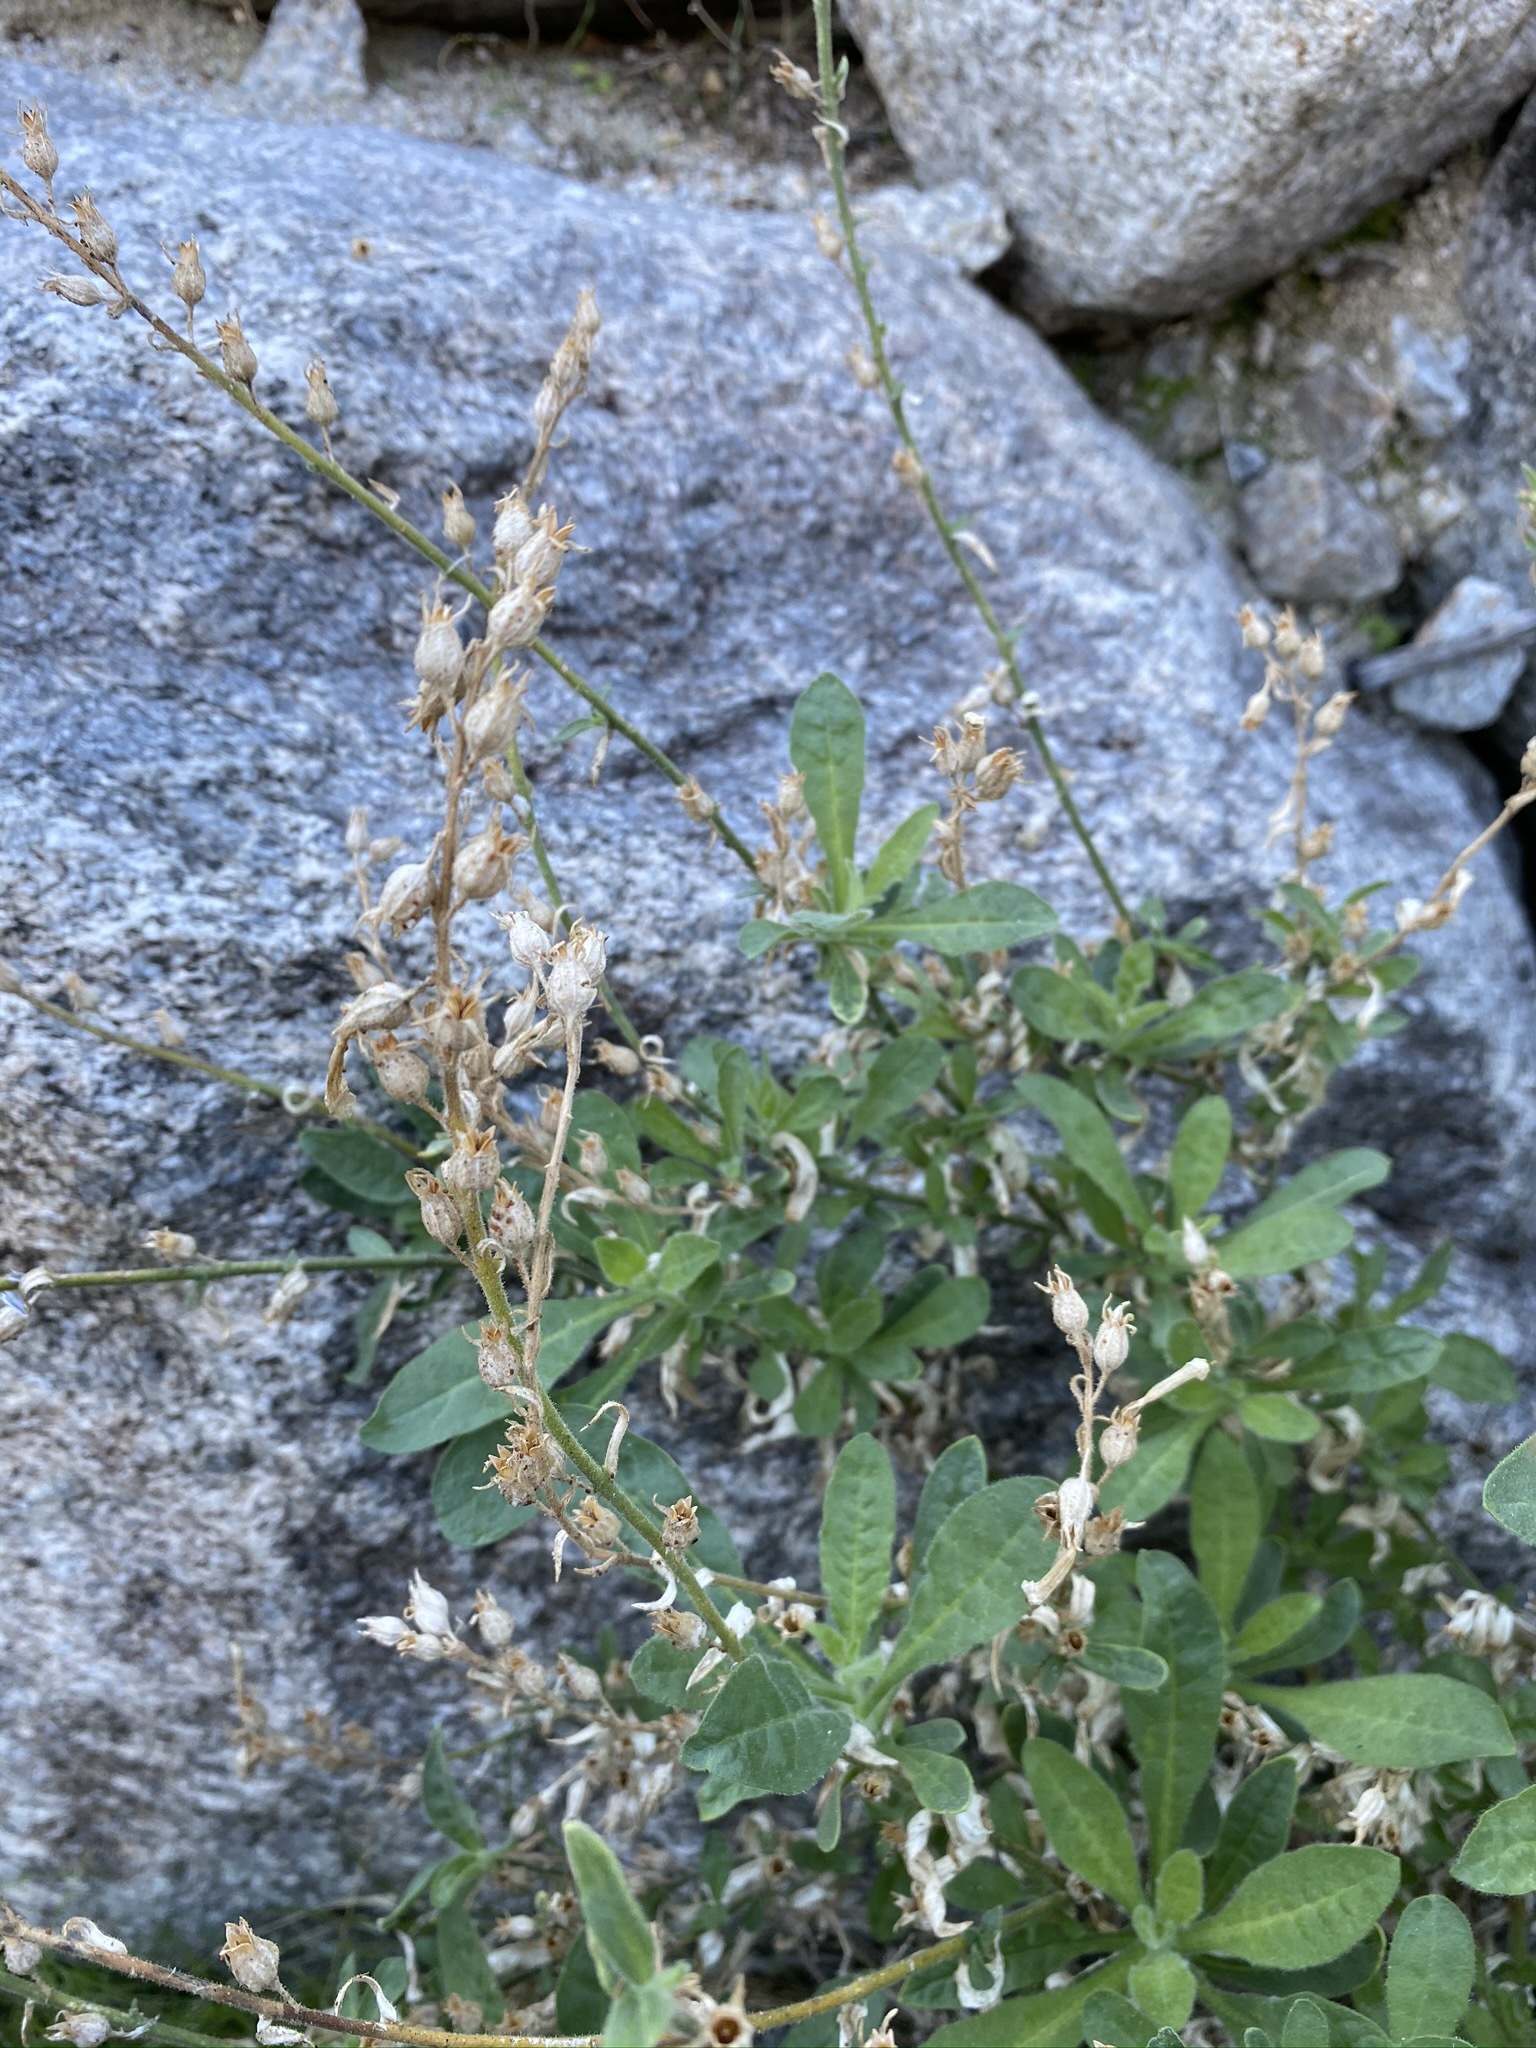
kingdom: Plantae
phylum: Tracheophyta
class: Magnoliopsida
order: Solanales
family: Solanaceae
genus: Nicotiana
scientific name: Nicotiana obtusifolia
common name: Desert tobacco
